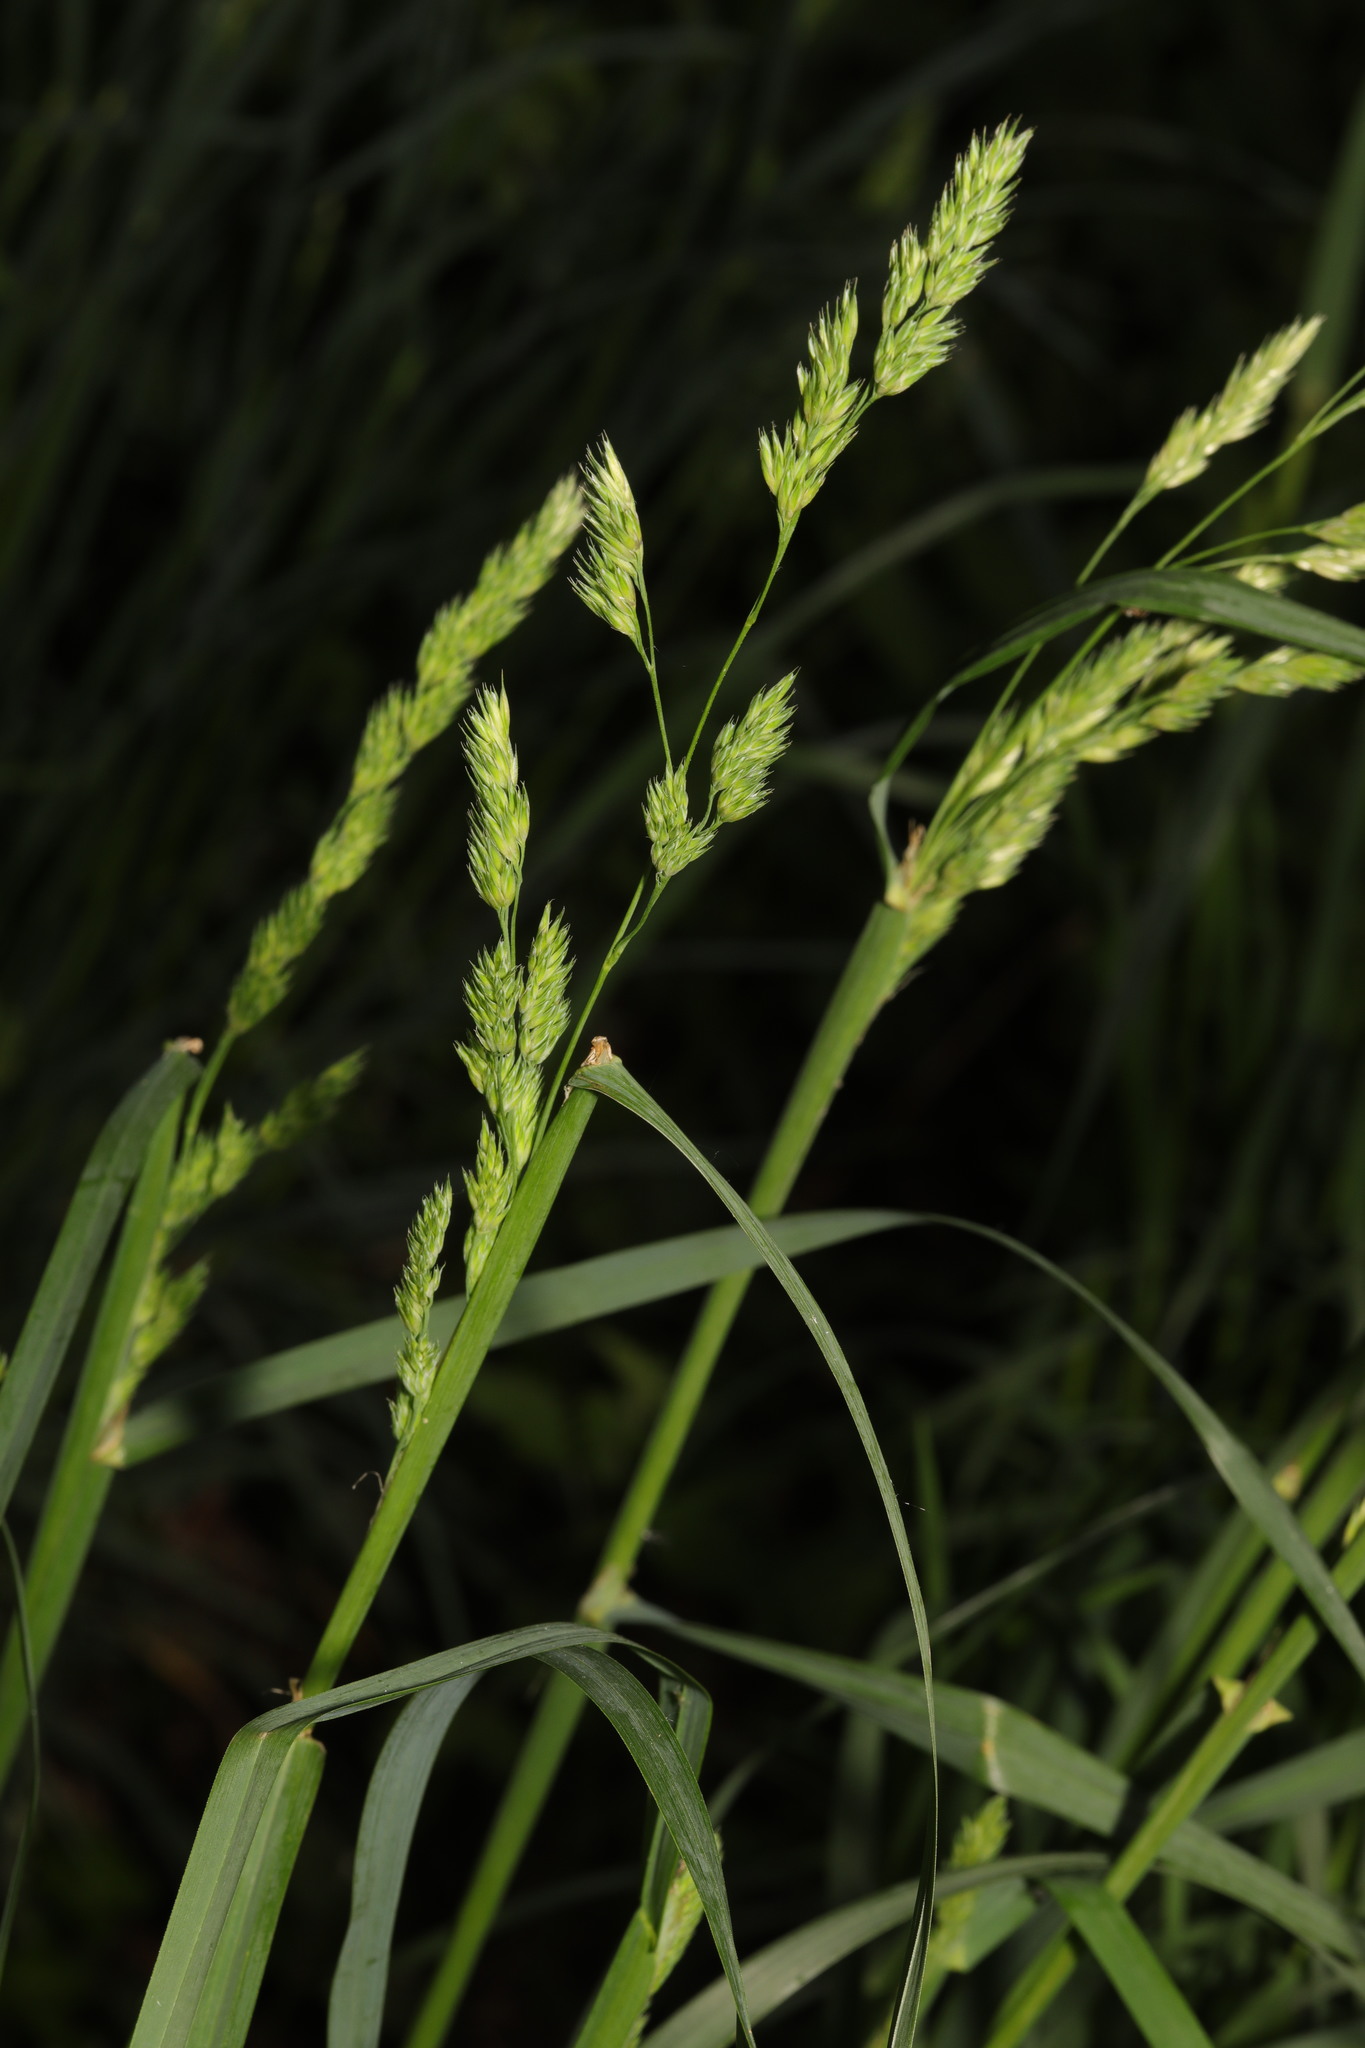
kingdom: Plantae
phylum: Tracheophyta
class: Liliopsida
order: Poales
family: Poaceae
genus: Dactylis
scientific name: Dactylis glomerata
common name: Orchardgrass
